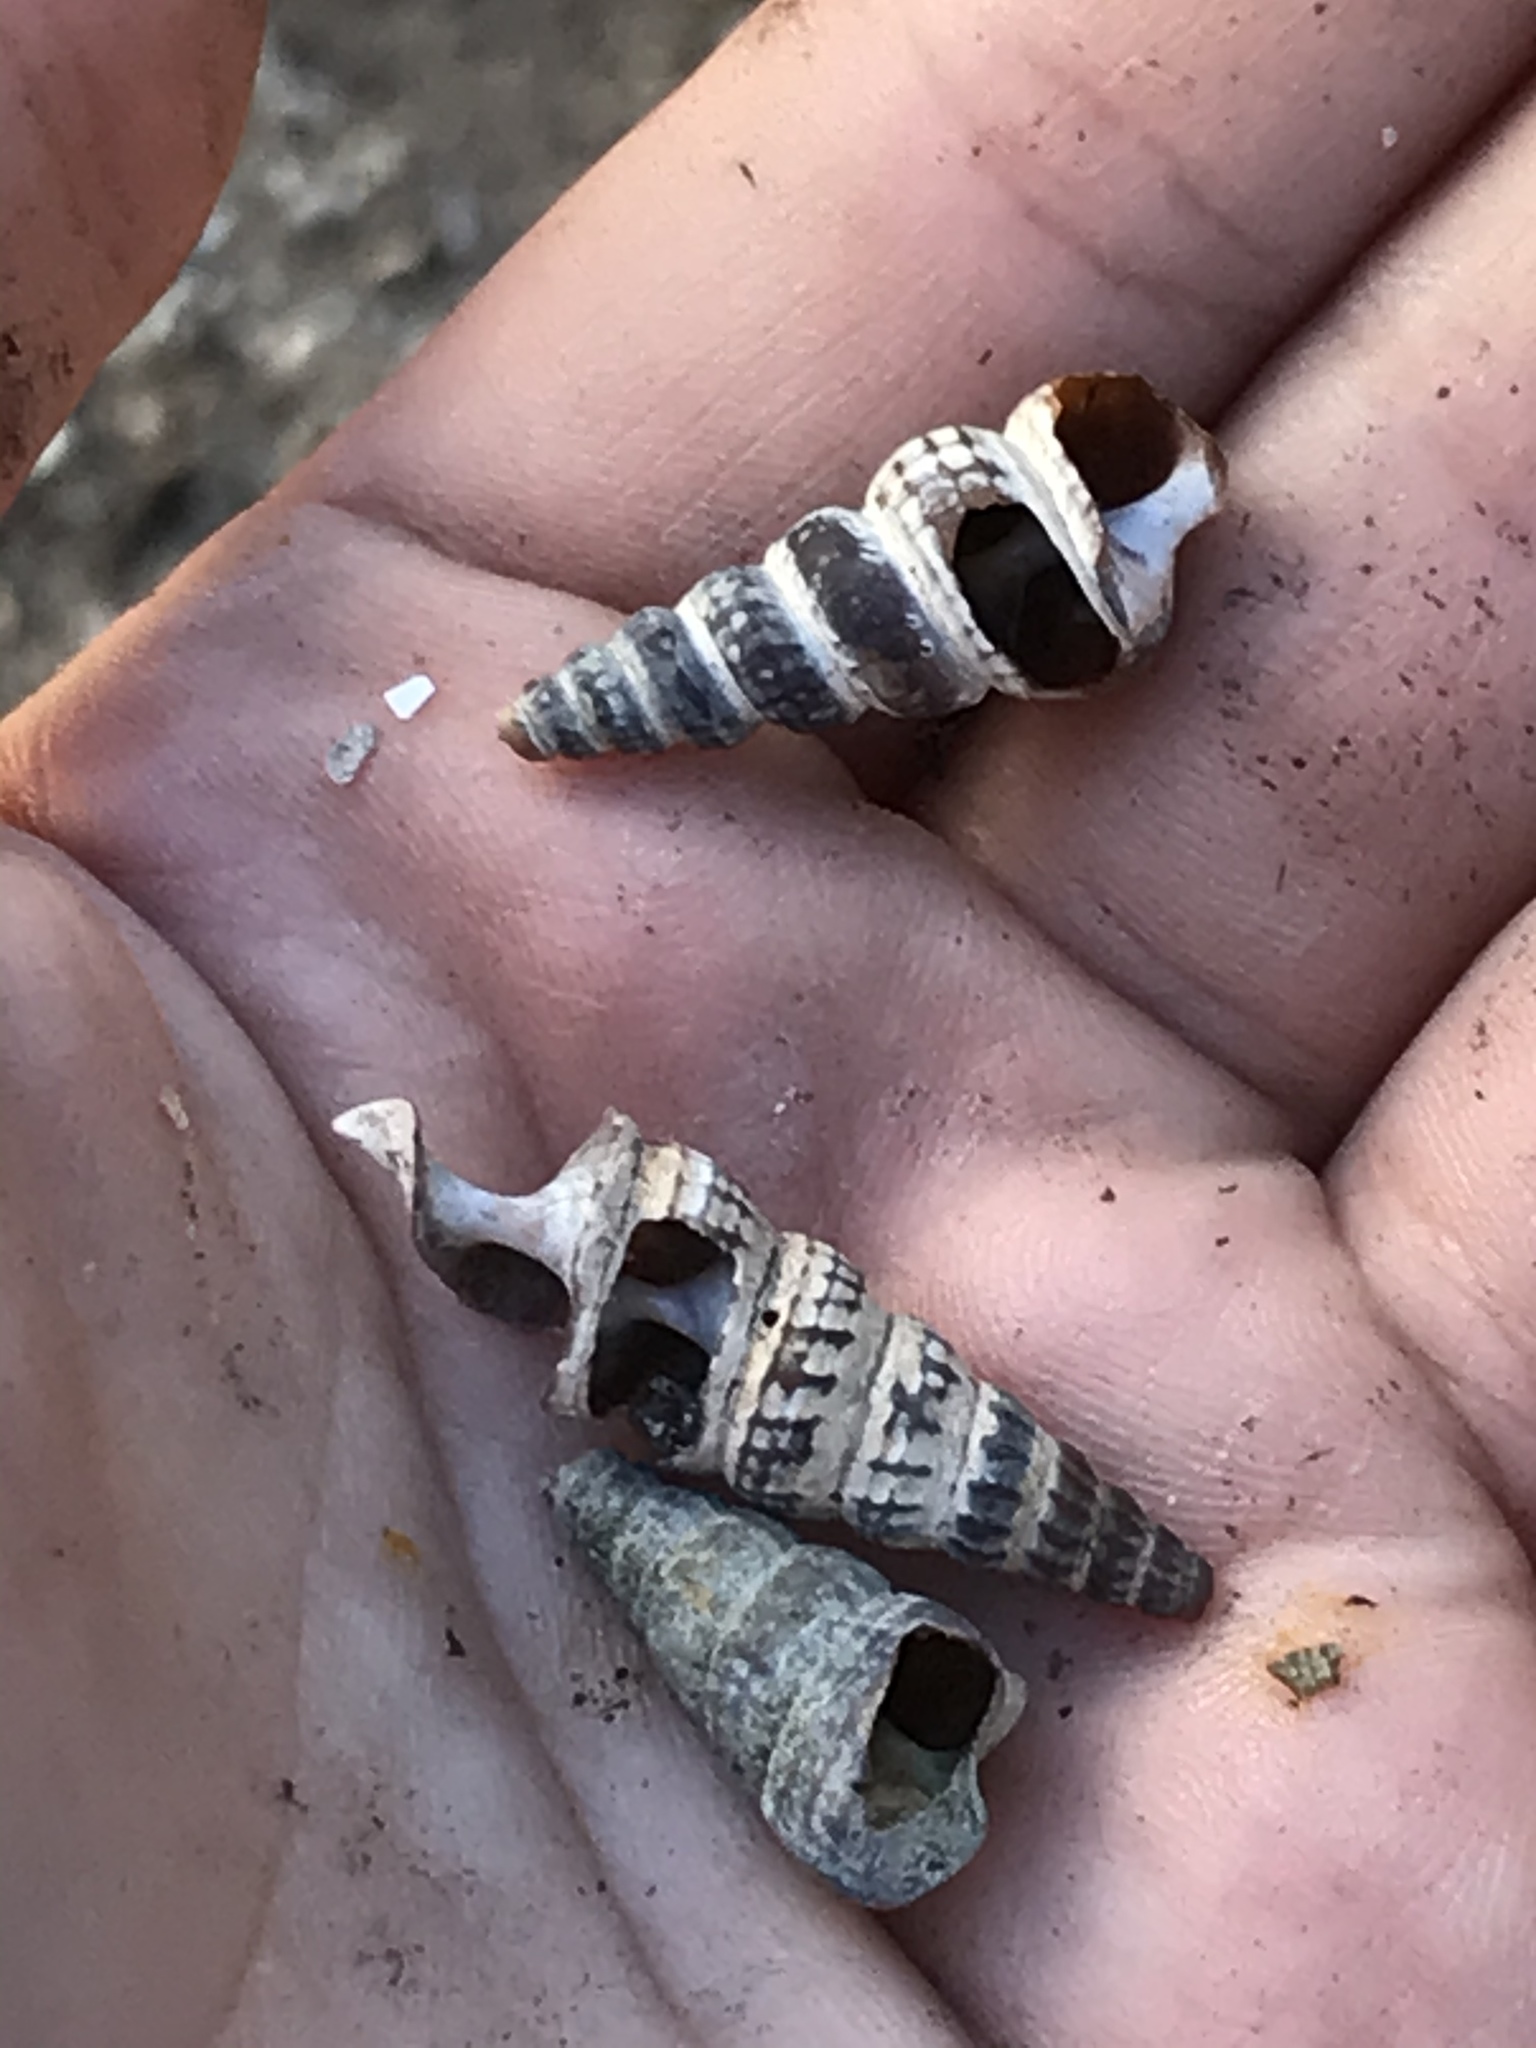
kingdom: Animalia
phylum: Mollusca
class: Gastropoda
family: Potamididae
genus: Cerithideopsis
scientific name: Cerithideopsis californica
